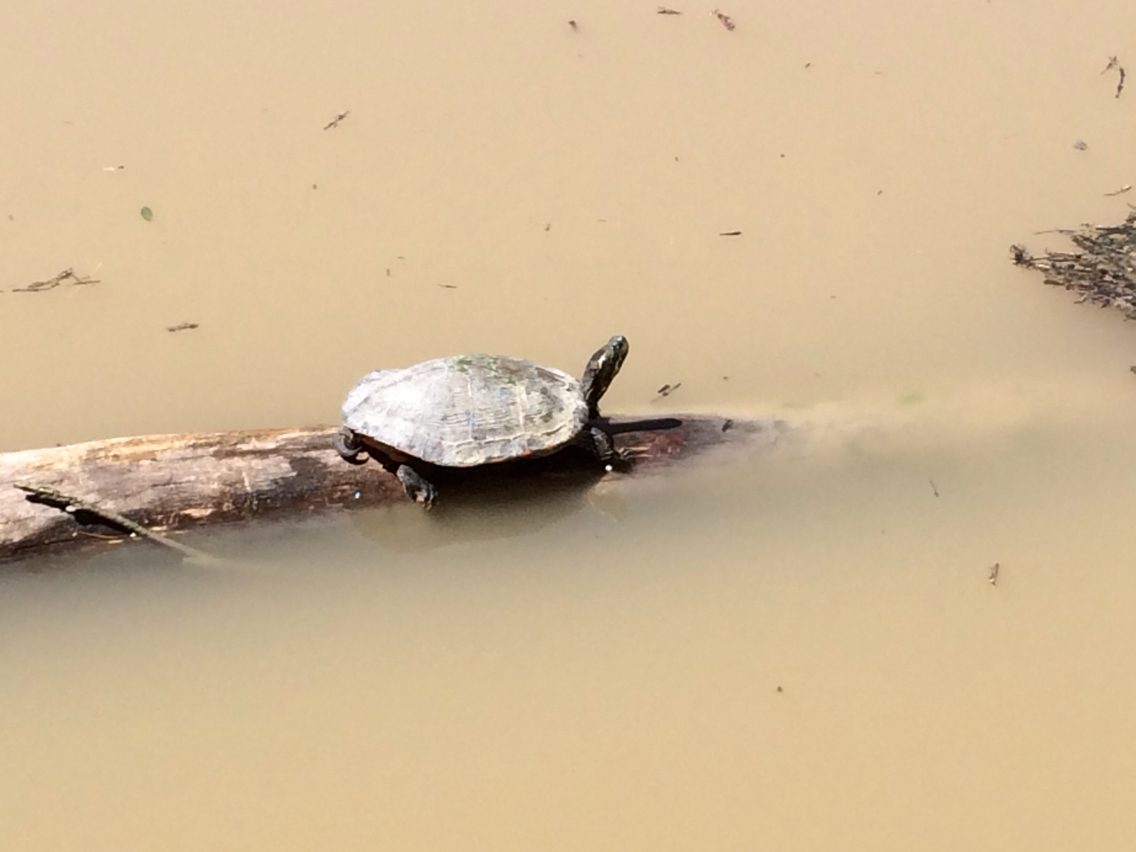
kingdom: Animalia
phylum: Chordata
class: Testudines
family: Emydidae
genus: Trachemys
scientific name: Trachemys scripta
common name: Slider
